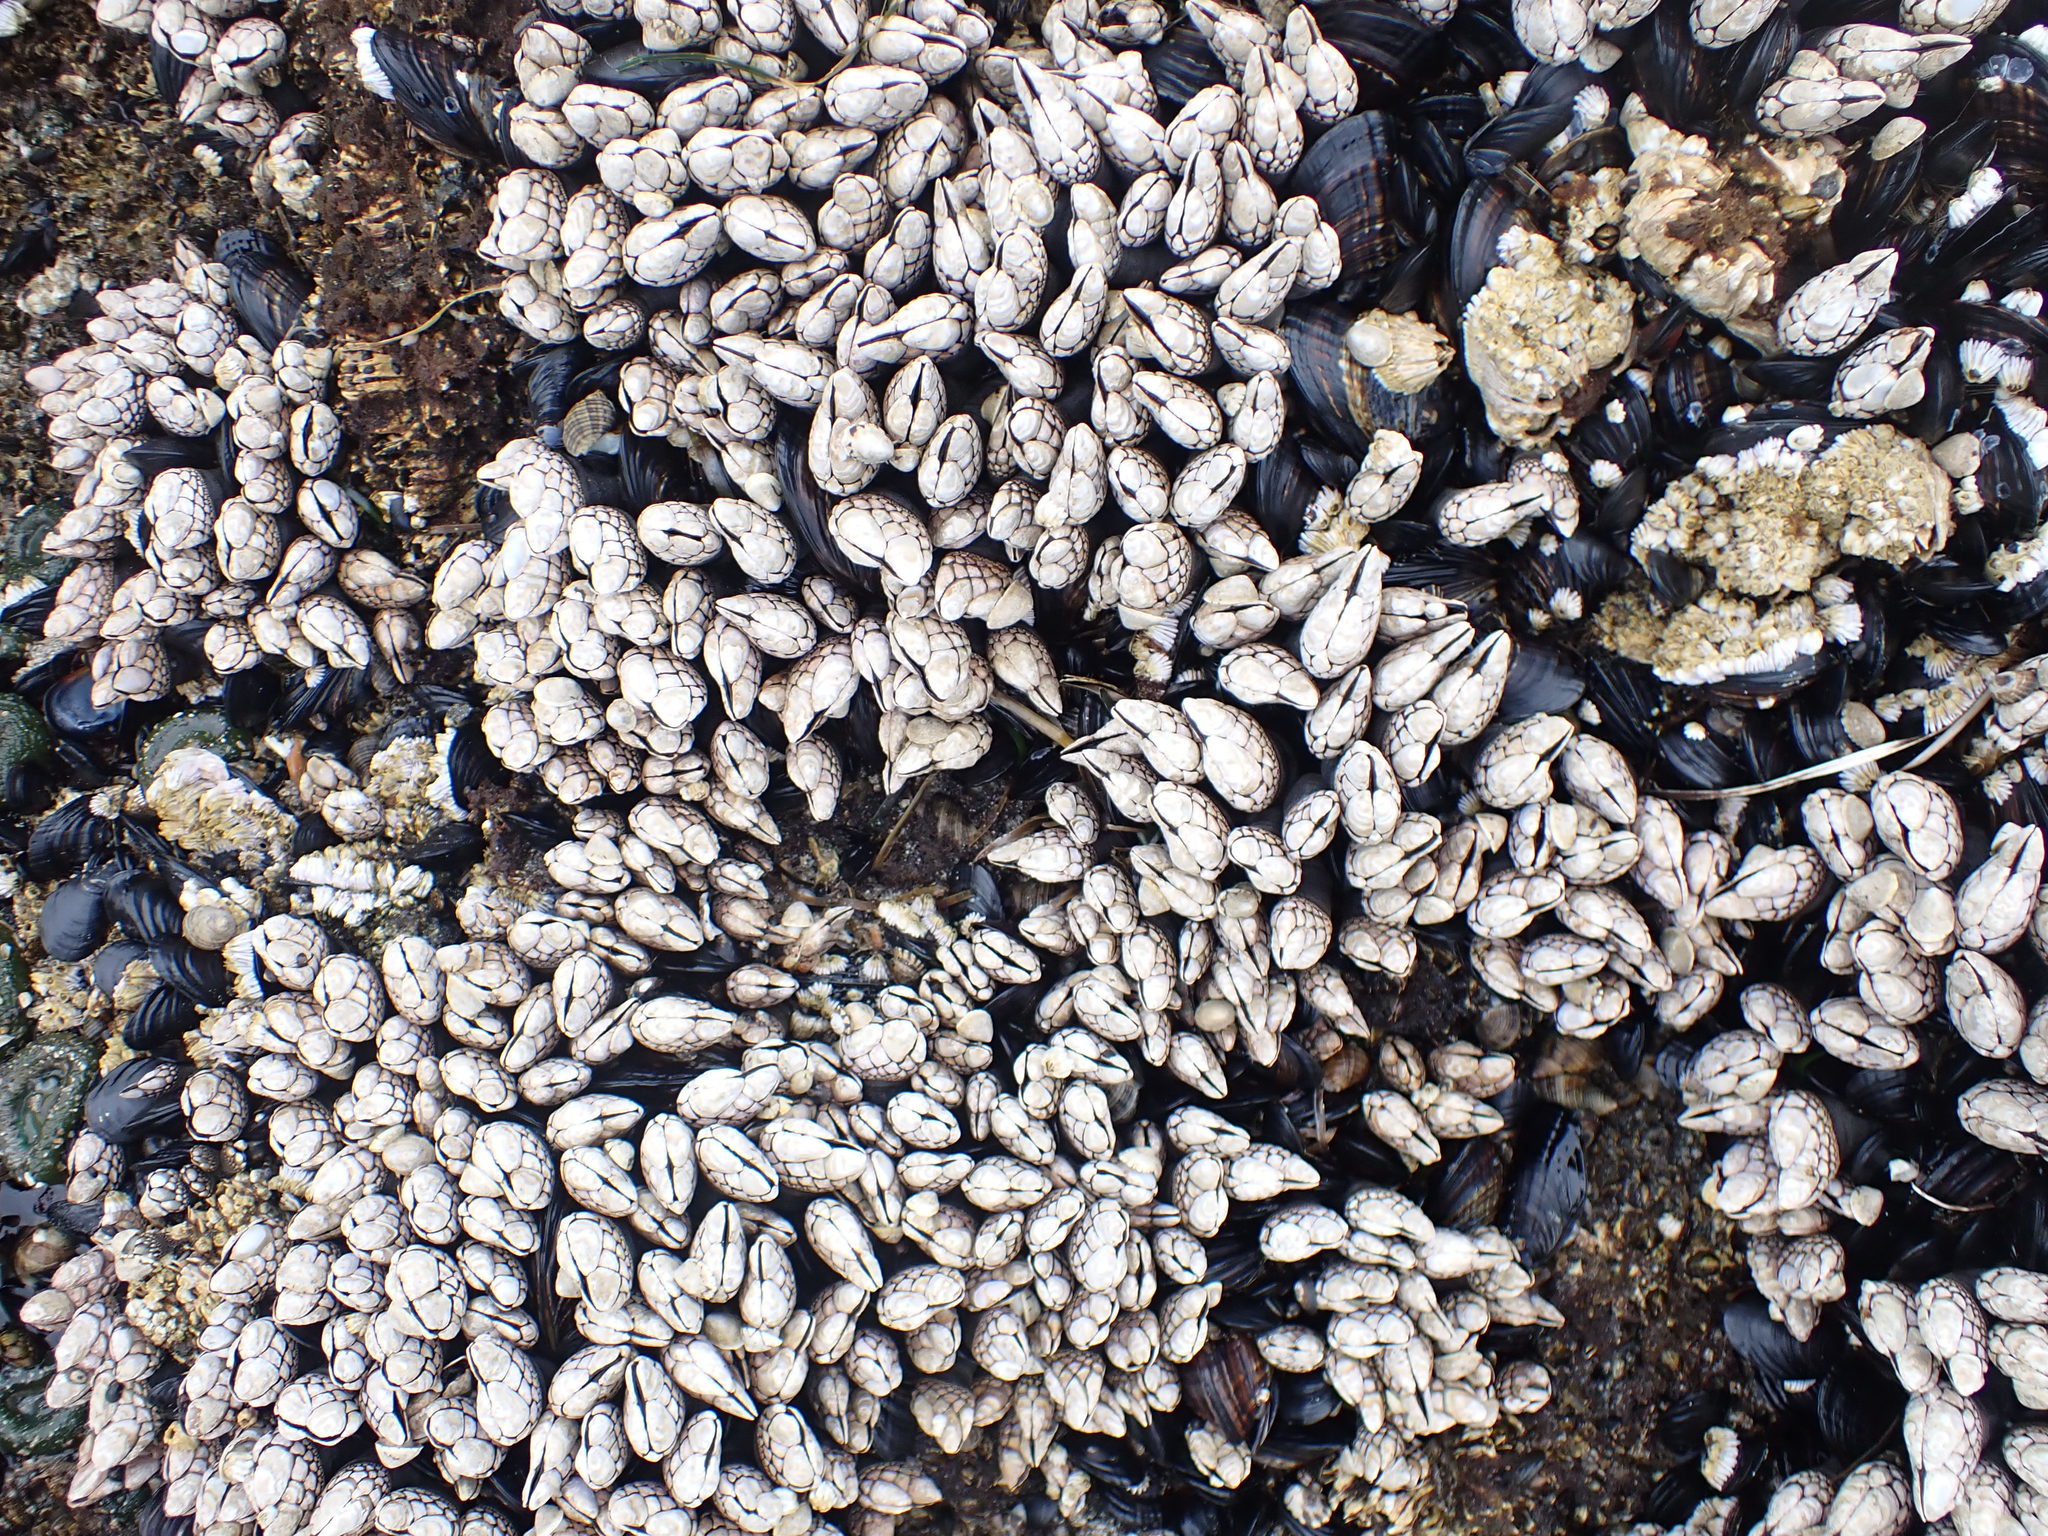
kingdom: Animalia
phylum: Arthropoda
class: Maxillopoda
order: Pedunculata
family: Pollicipedidae
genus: Pollicipes
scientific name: Pollicipes polymerus
